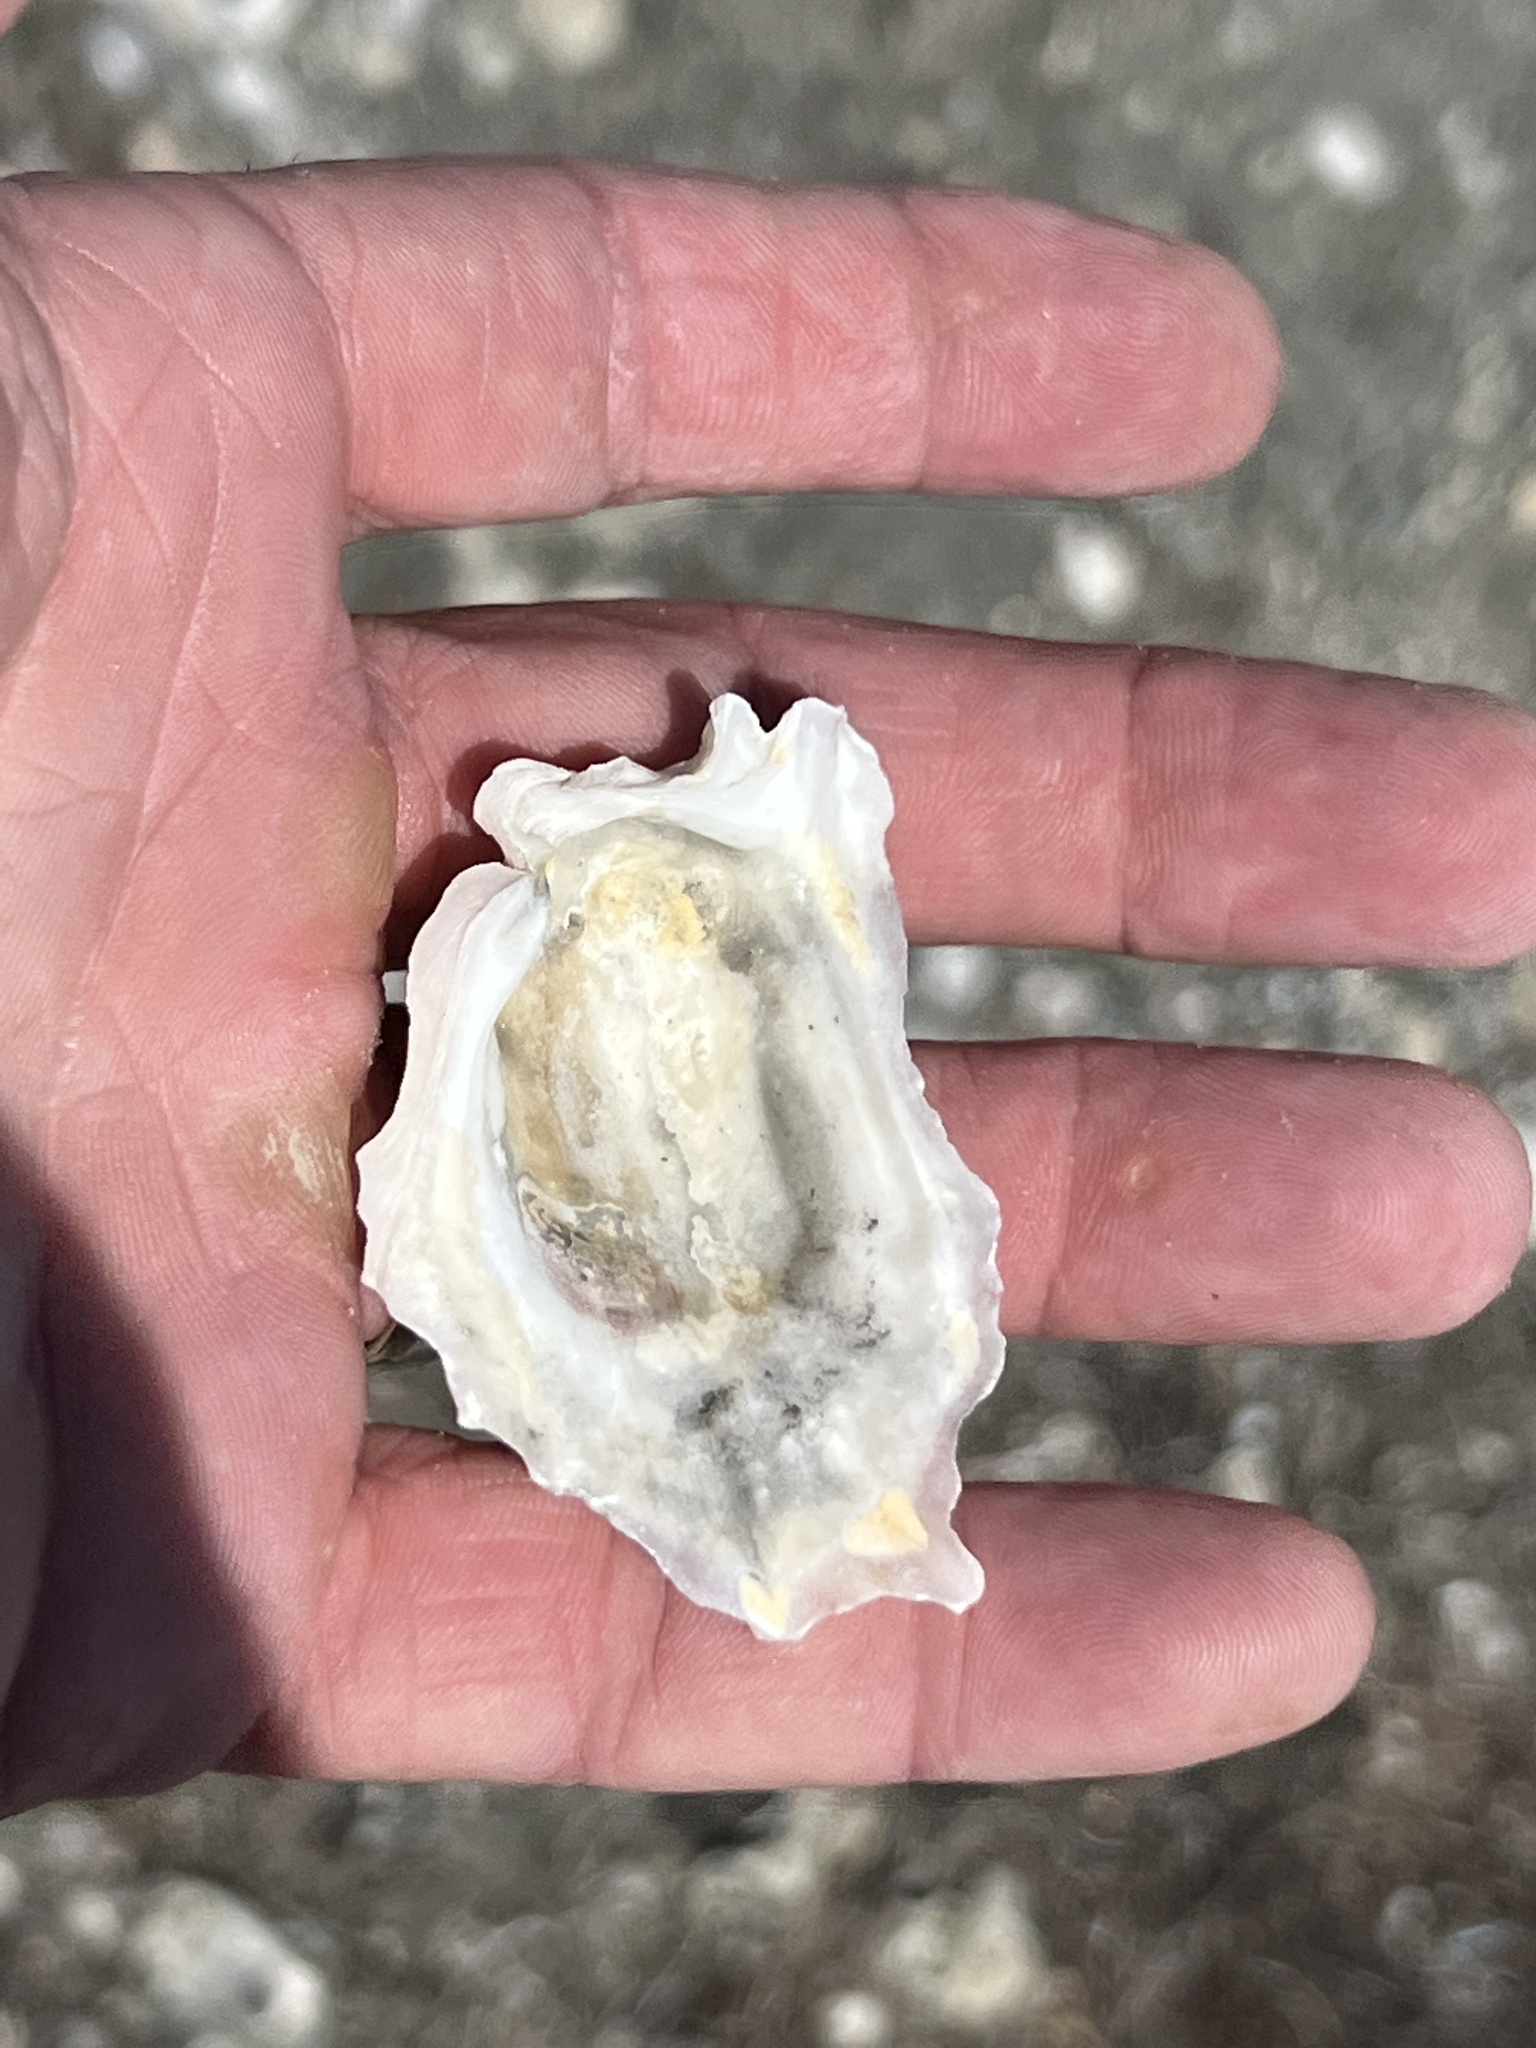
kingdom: Animalia
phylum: Mollusca
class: Bivalvia
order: Ostreida
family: Ostreidae
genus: Crassostrea
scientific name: Crassostrea virginica
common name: American oyster
